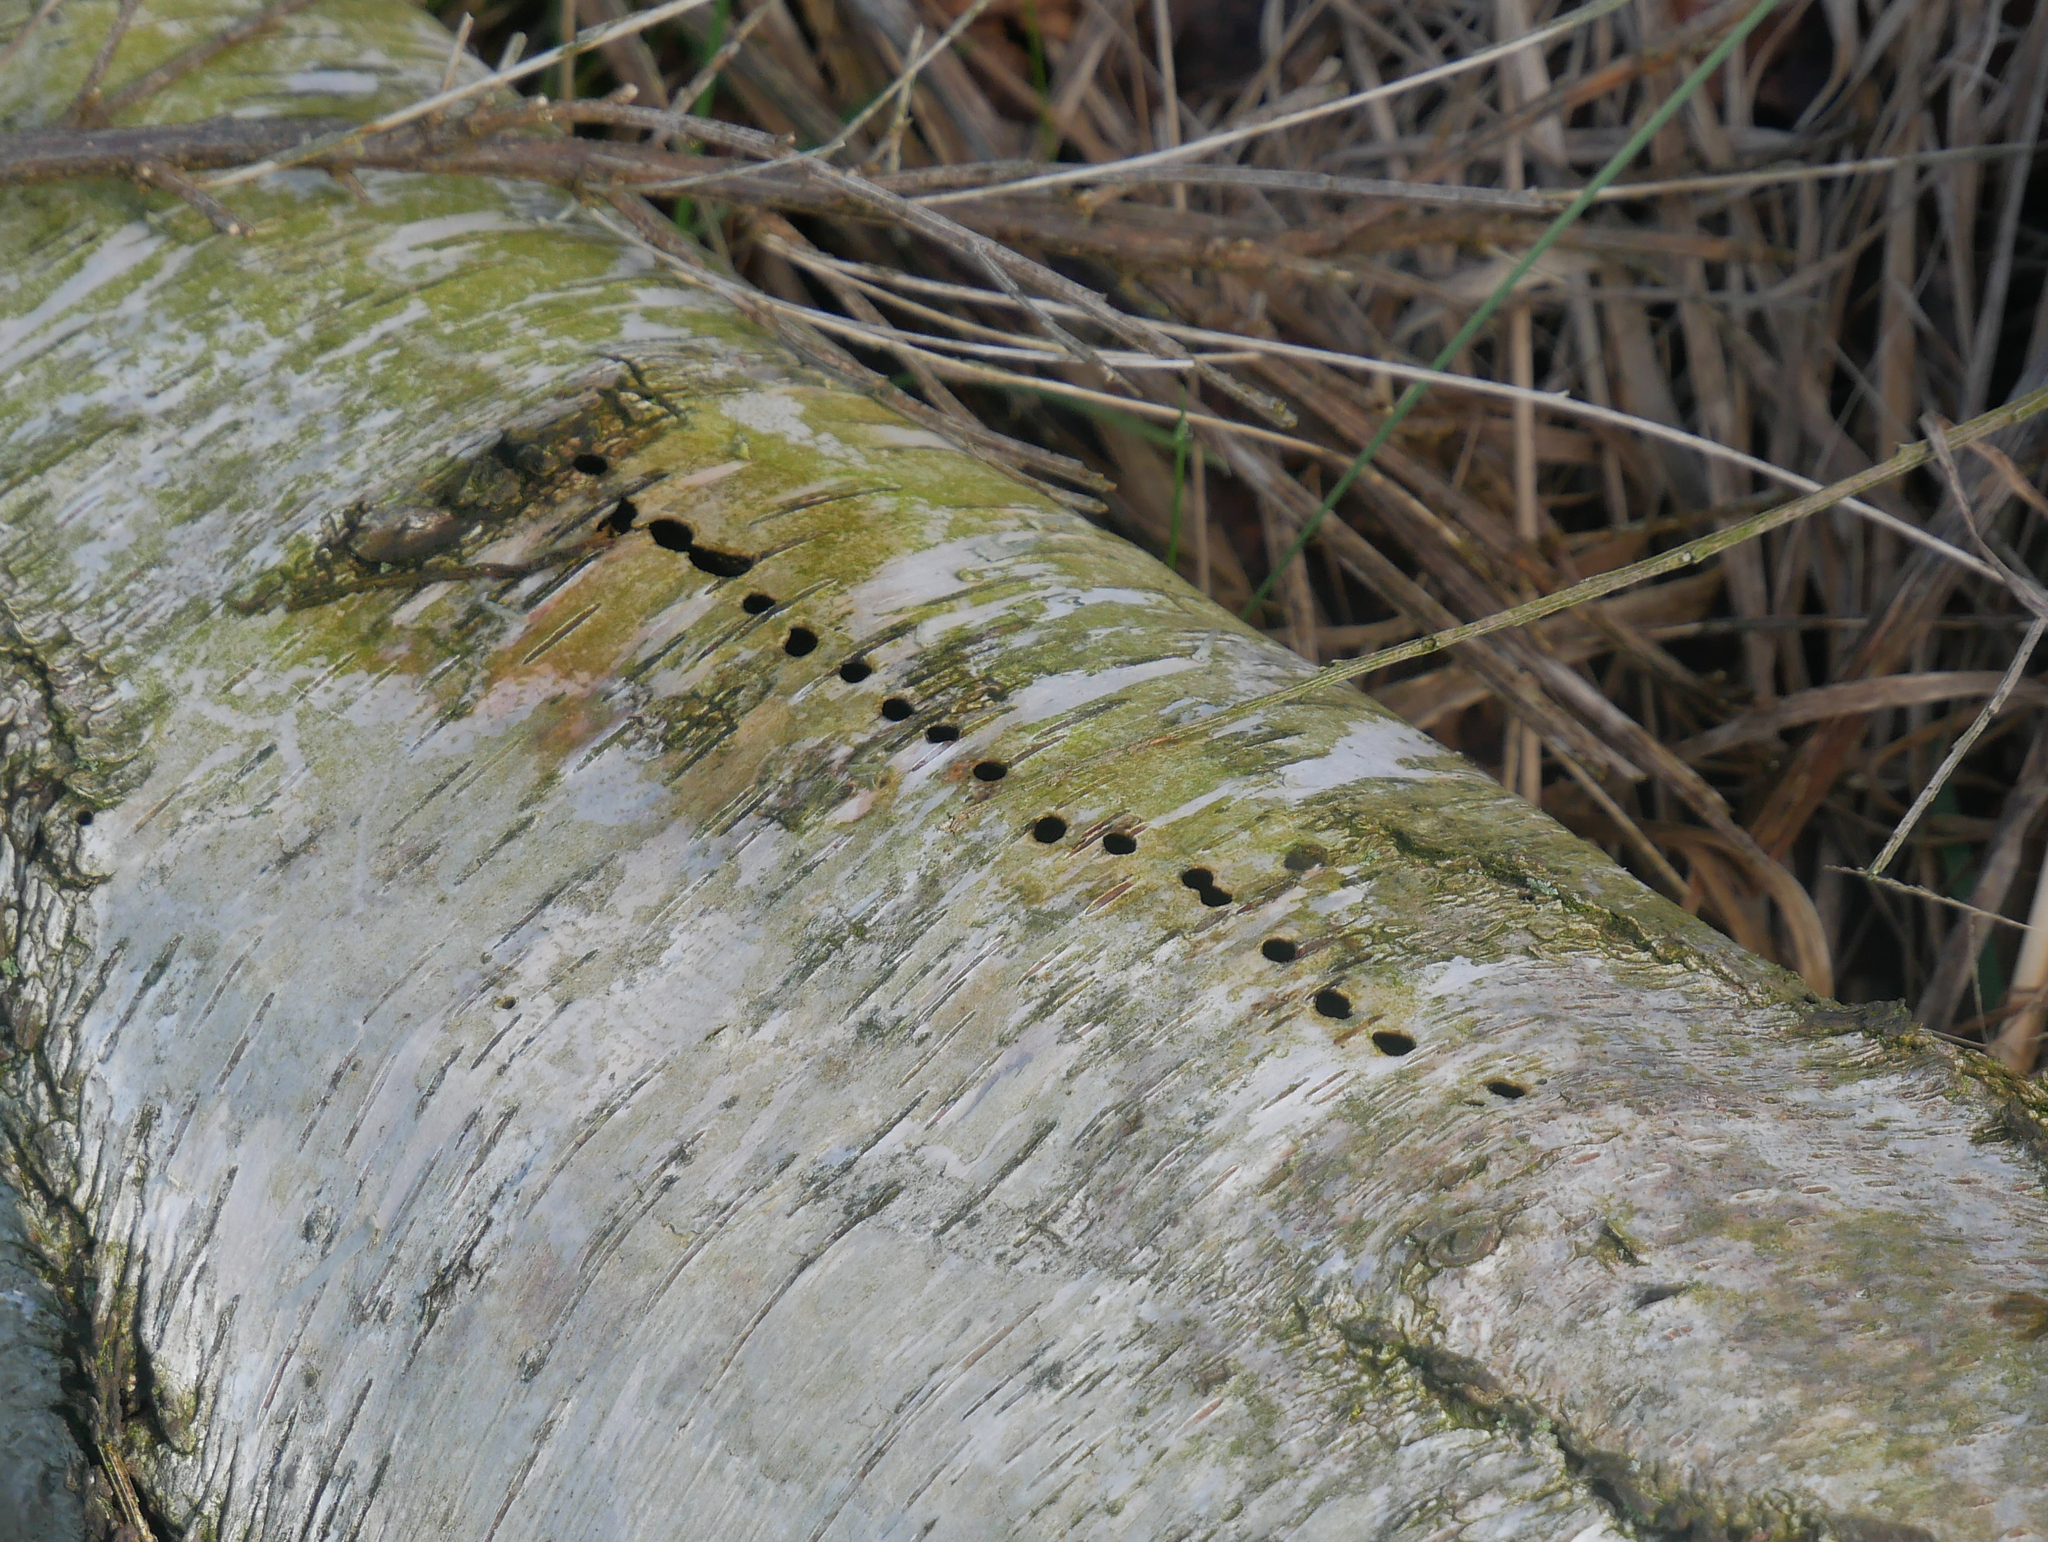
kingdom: Animalia
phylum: Arthropoda
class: Insecta
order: Coleoptera
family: Curculionidae
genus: Scolytus
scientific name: Scolytus ratzeburgii
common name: Birch bark beetle
